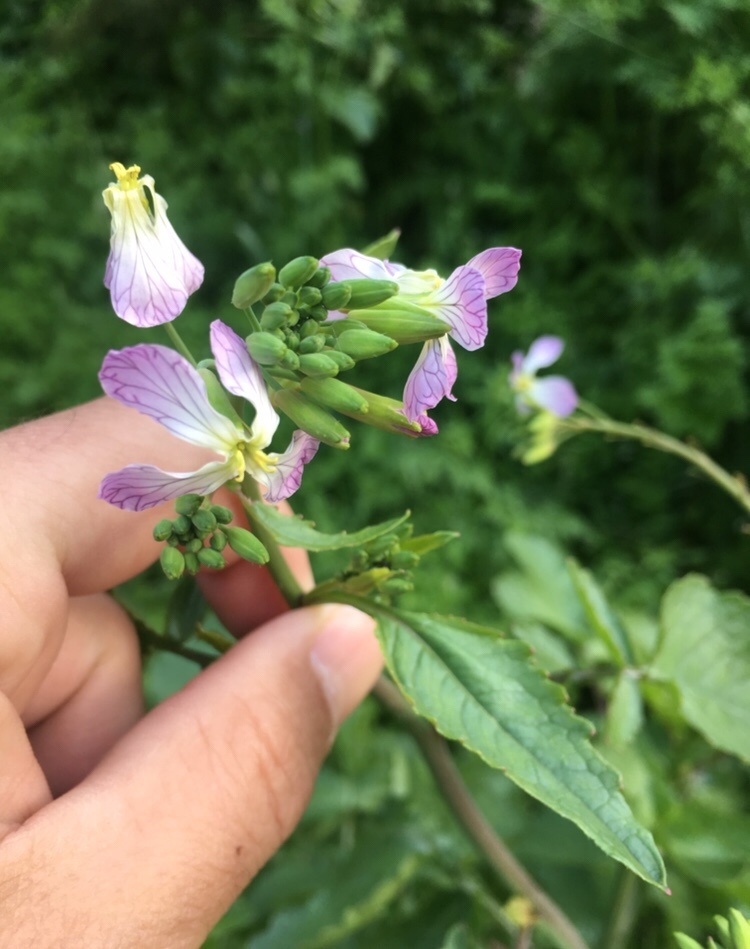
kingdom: Plantae
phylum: Tracheophyta
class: Magnoliopsida
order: Brassicales
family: Brassicaceae
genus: Raphanus
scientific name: Raphanus sativus
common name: Cultivated radish
